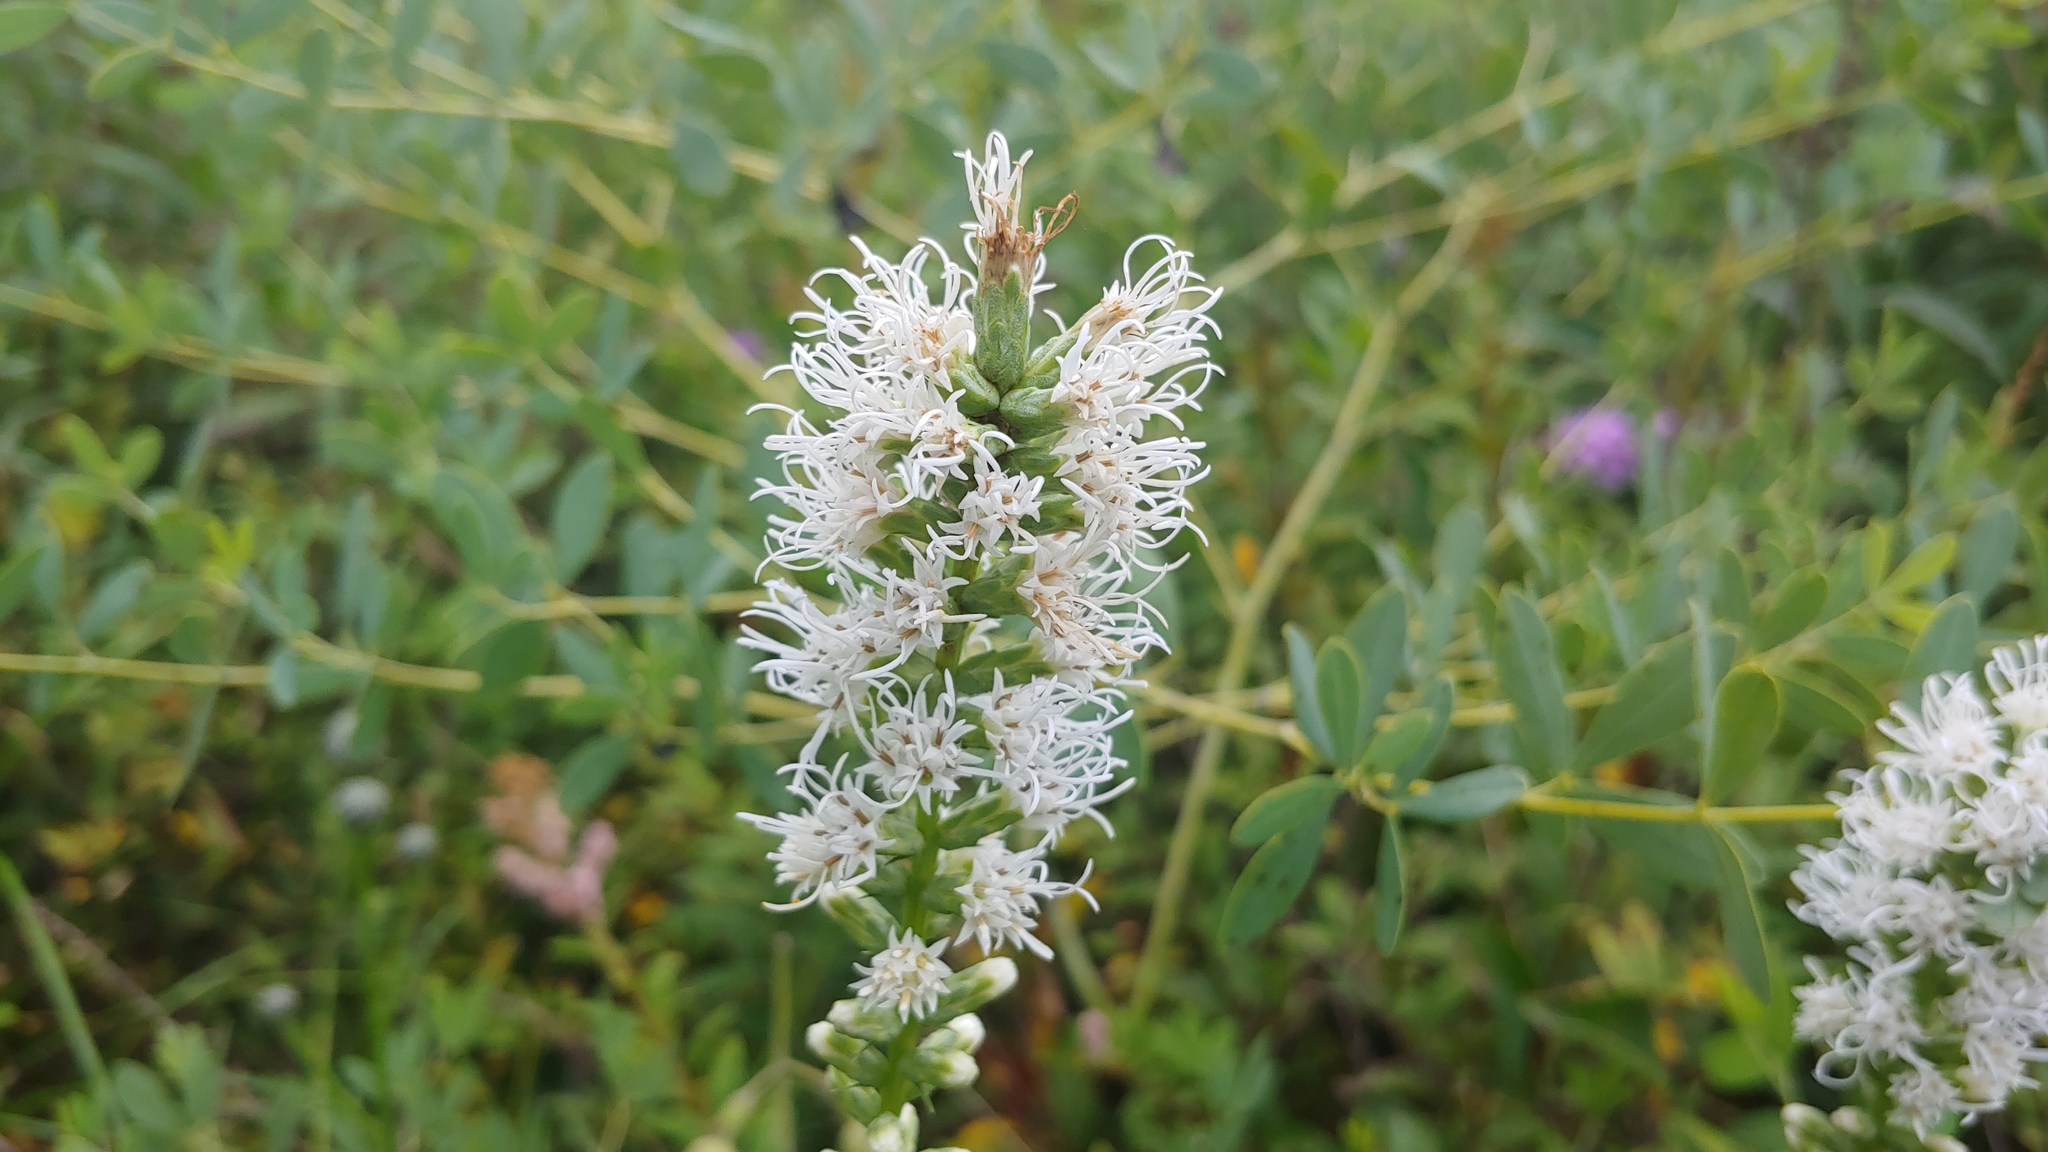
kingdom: Plantae
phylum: Tracheophyta
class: Magnoliopsida
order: Asterales
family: Asteraceae
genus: Liatris
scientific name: Liatris spicata
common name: Florist gayfeather
